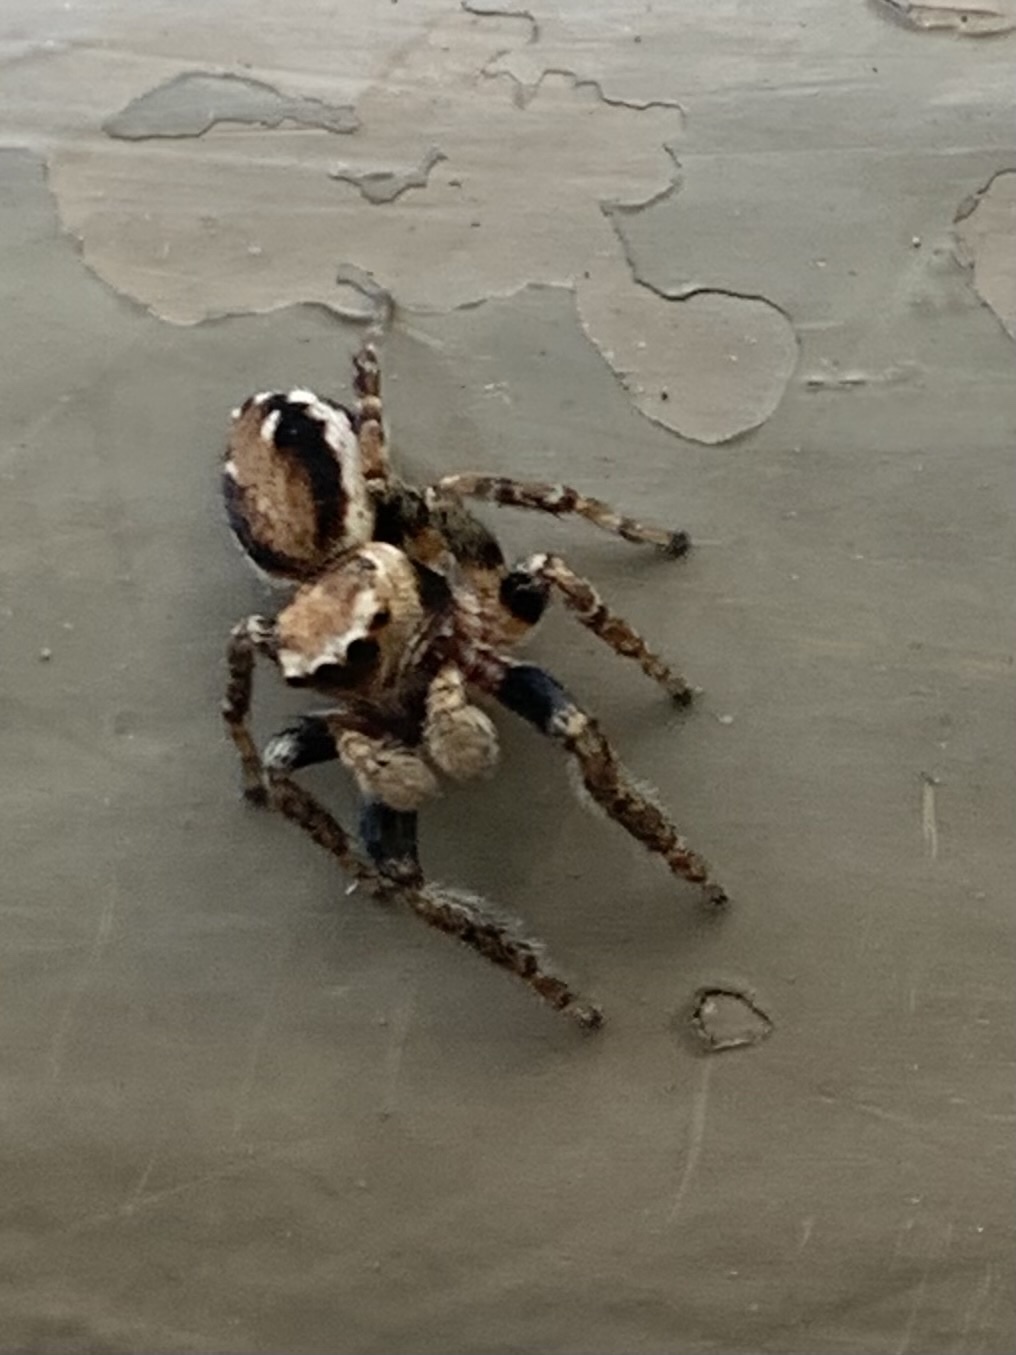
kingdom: Animalia
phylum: Arthropoda
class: Arachnida
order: Araneae
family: Salticidae
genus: Evarcha
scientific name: Evarcha proszynskii
